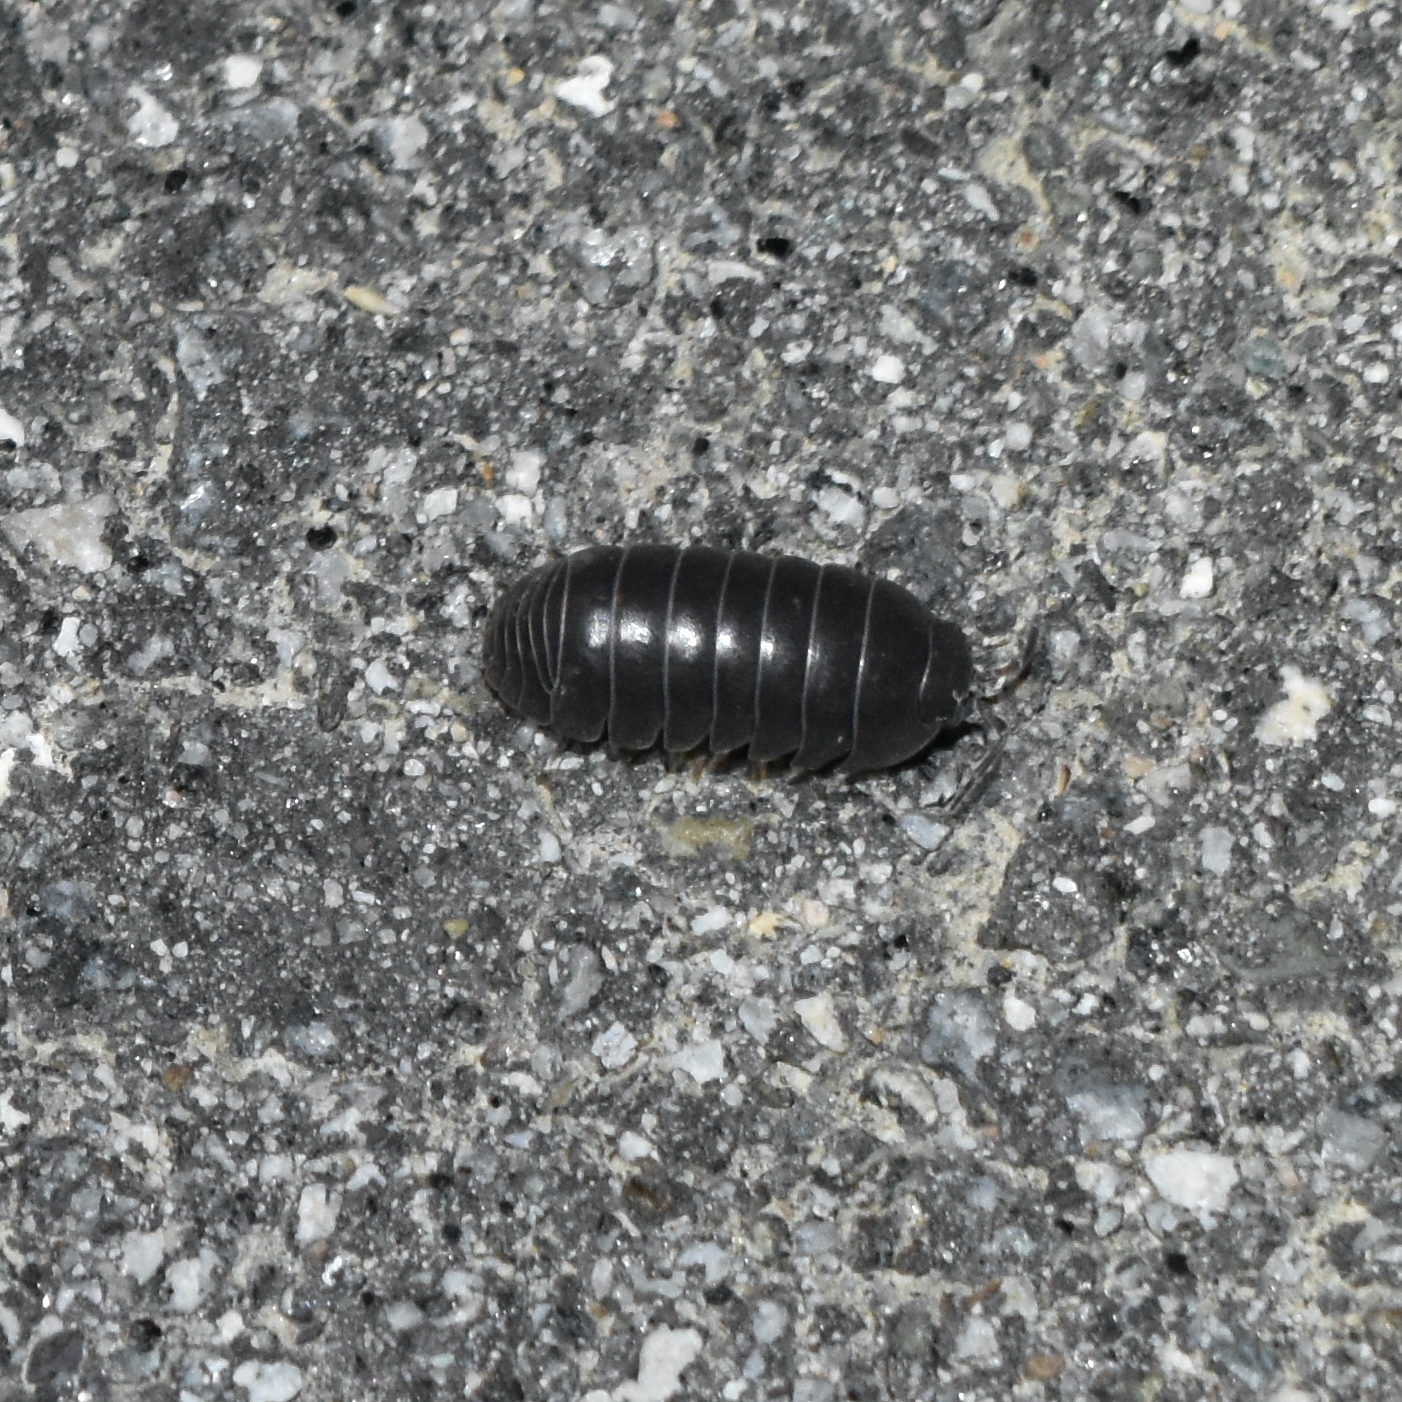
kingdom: Animalia
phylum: Arthropoda
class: Malacostraca
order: Isopoda
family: Armadillidiidae
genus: Armadillidium
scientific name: Armadillidium vulgare
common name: Common pill woodlouse
